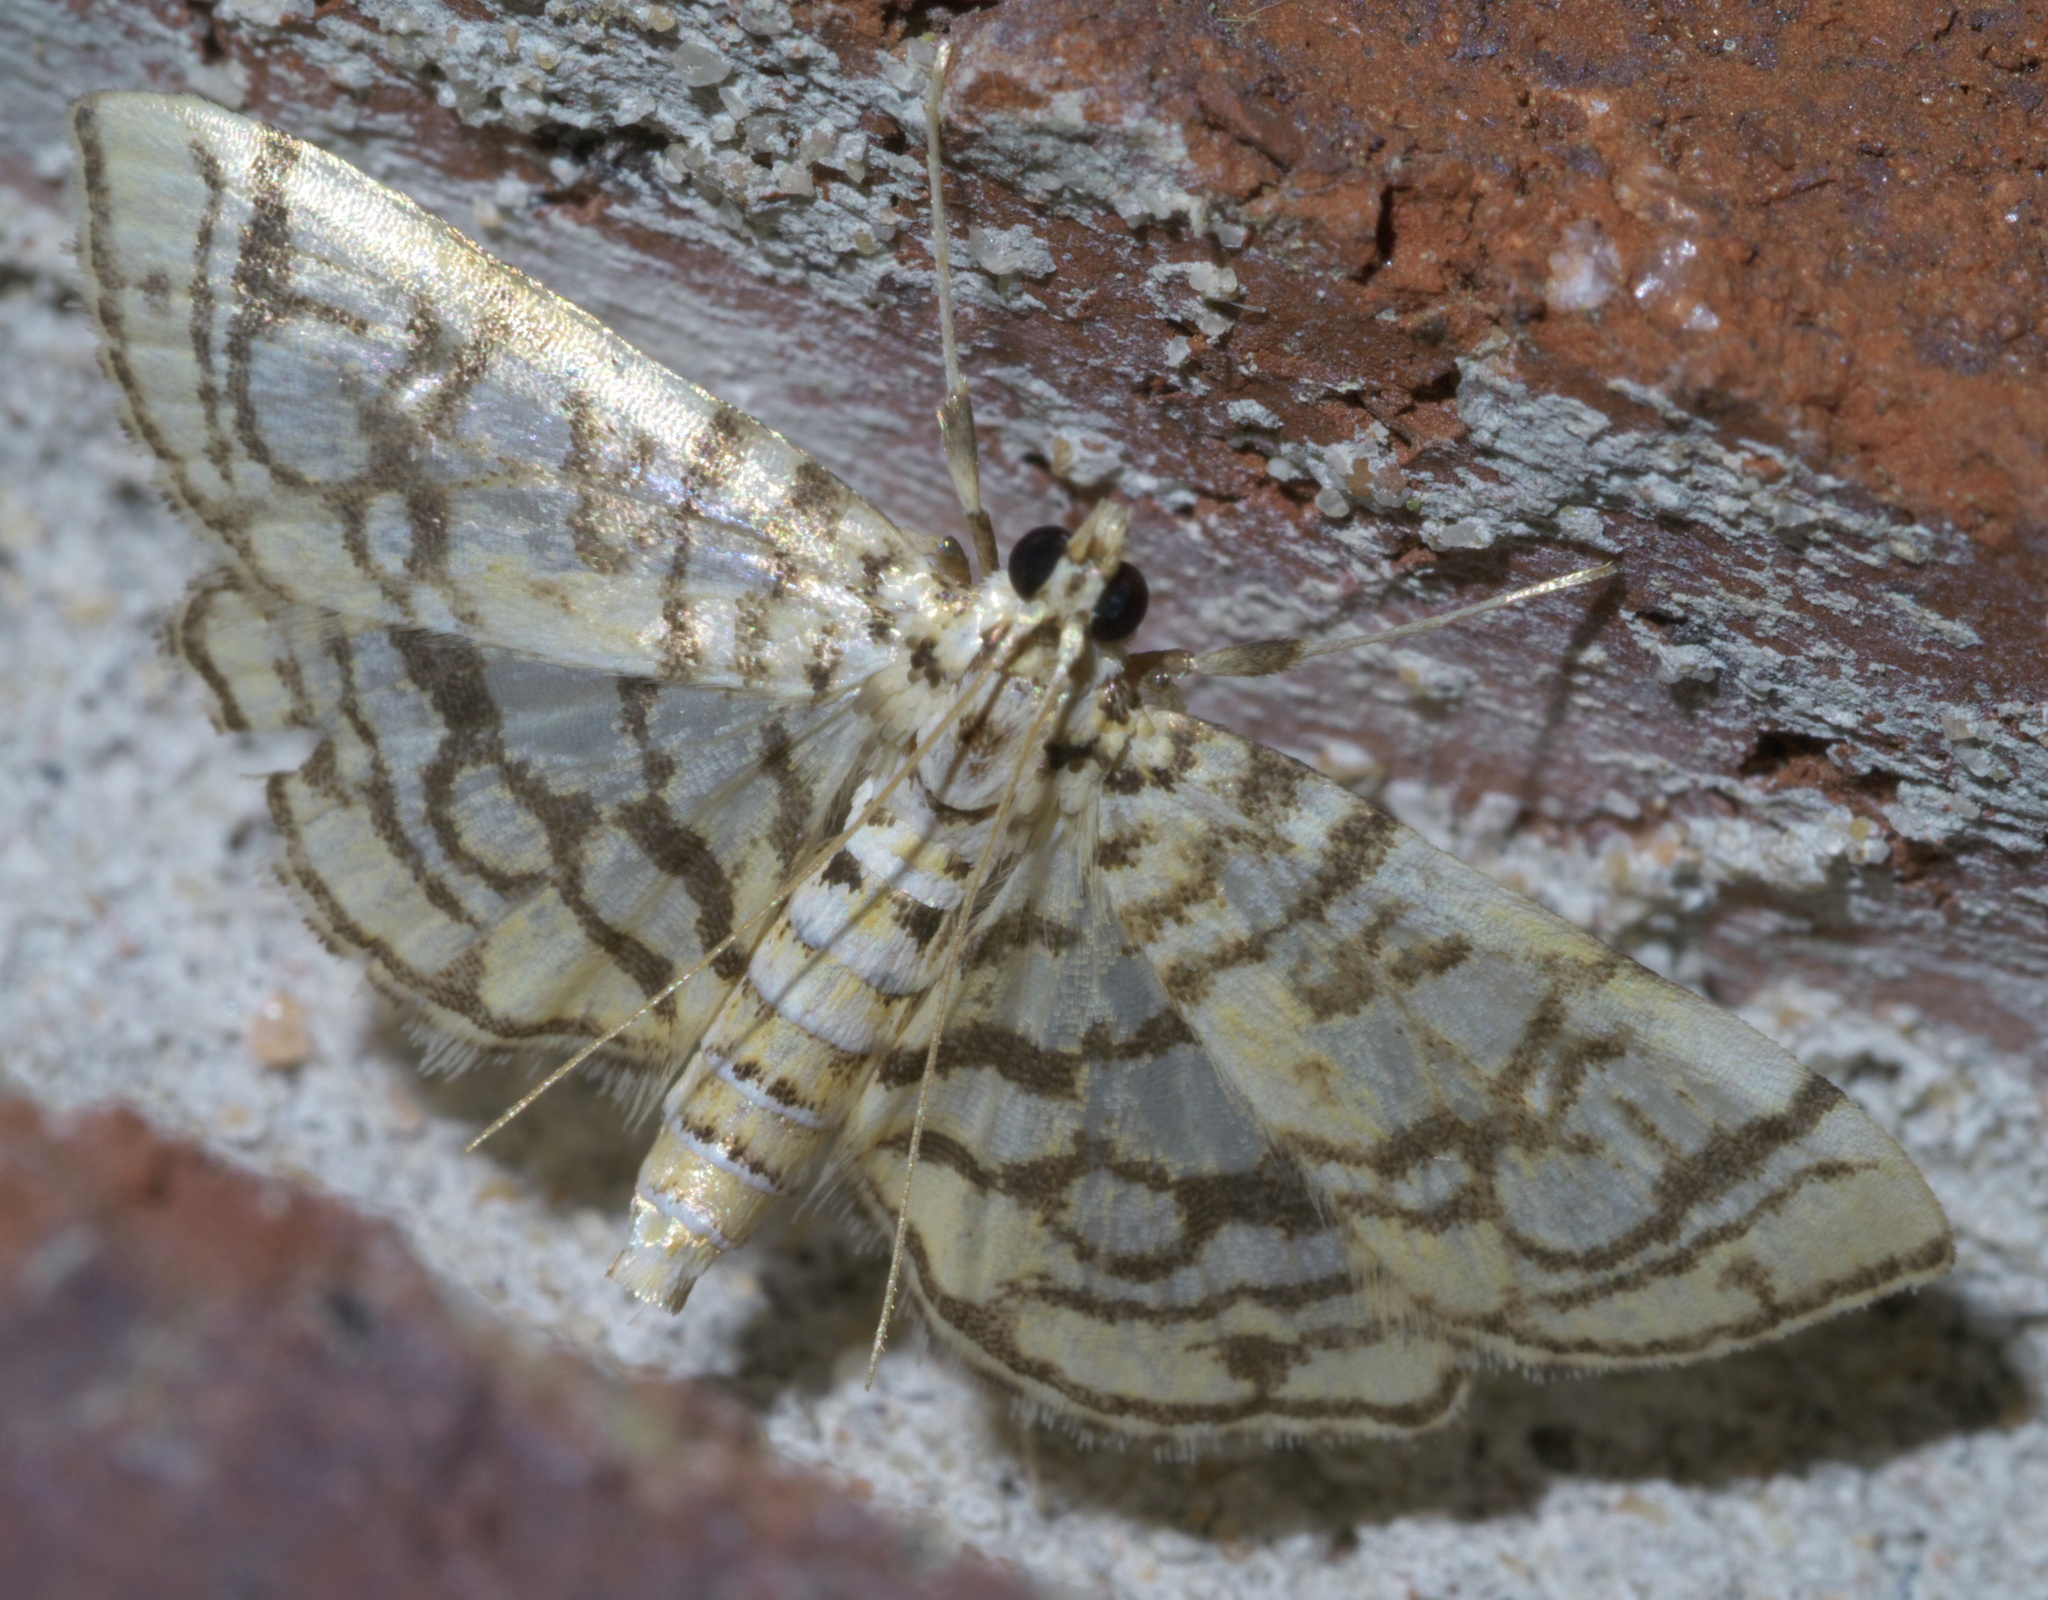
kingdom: Animalia
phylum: Arthropoda
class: Insecta
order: Lepidoptera
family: Crambidae
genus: Lygropia
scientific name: Lygropia rivulalis
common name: Bog lygropia moth
